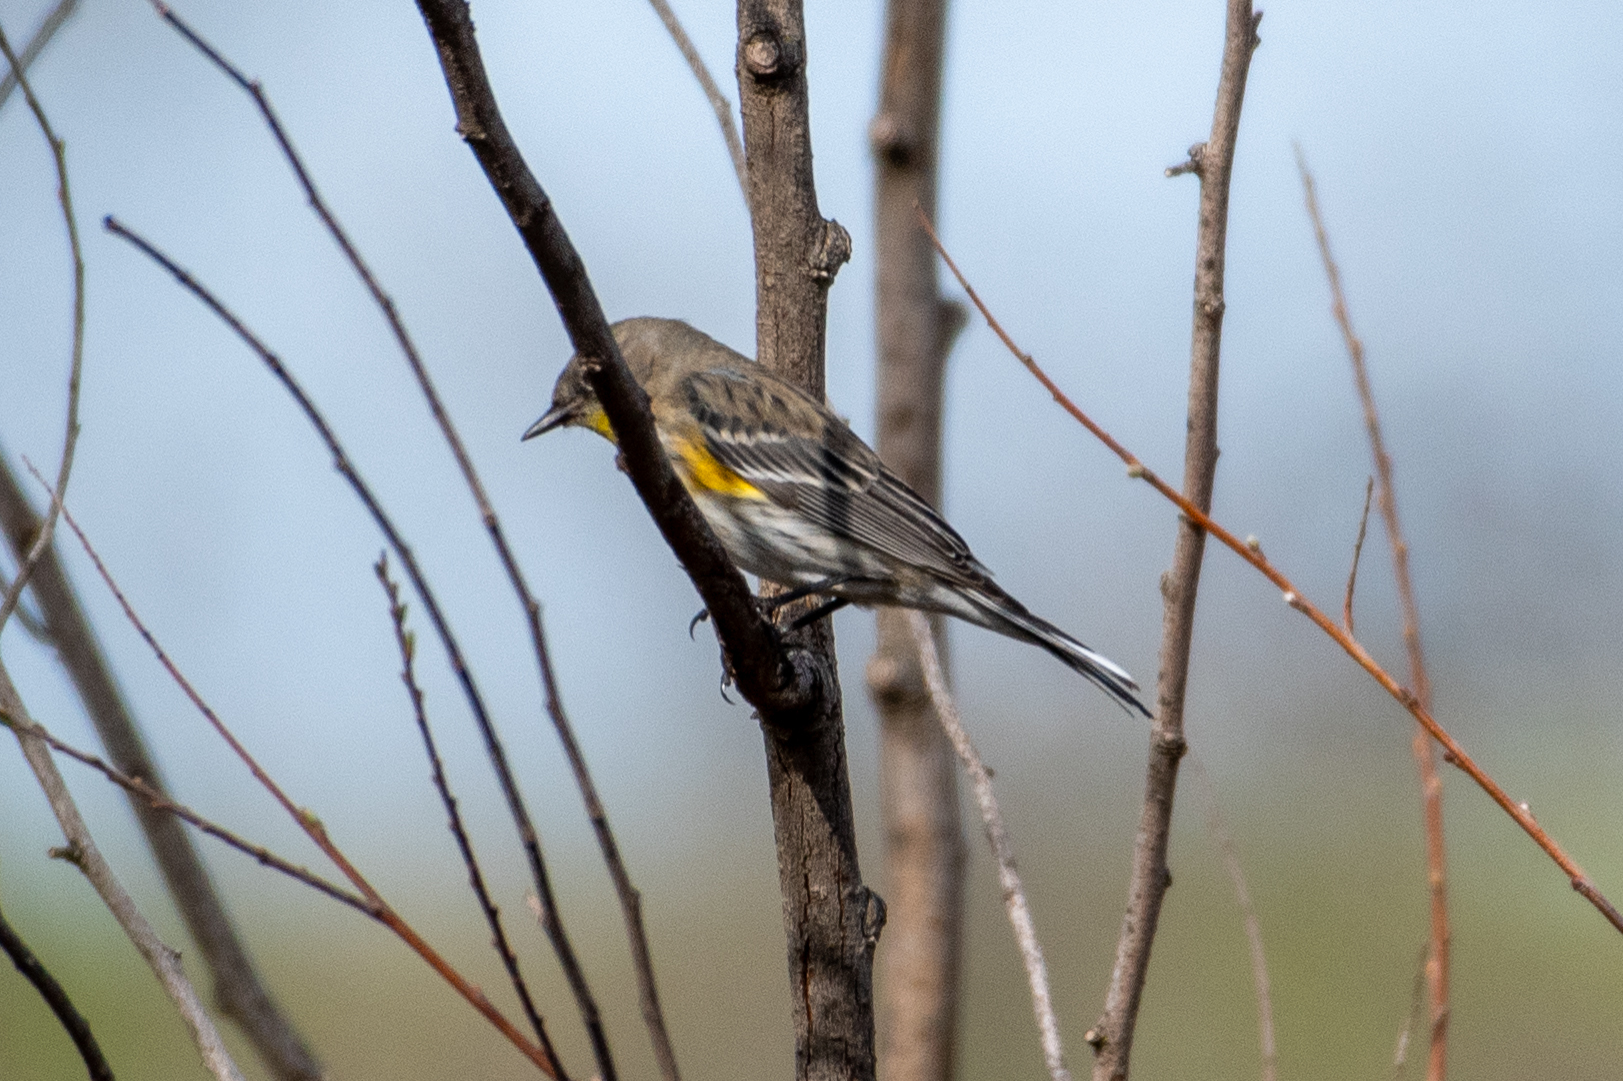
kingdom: Animalia
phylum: Chordata
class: Aves
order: Passeriformes
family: Parulidae
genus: Setophaga
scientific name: Setophaga coronata
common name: Myrtle warbler
